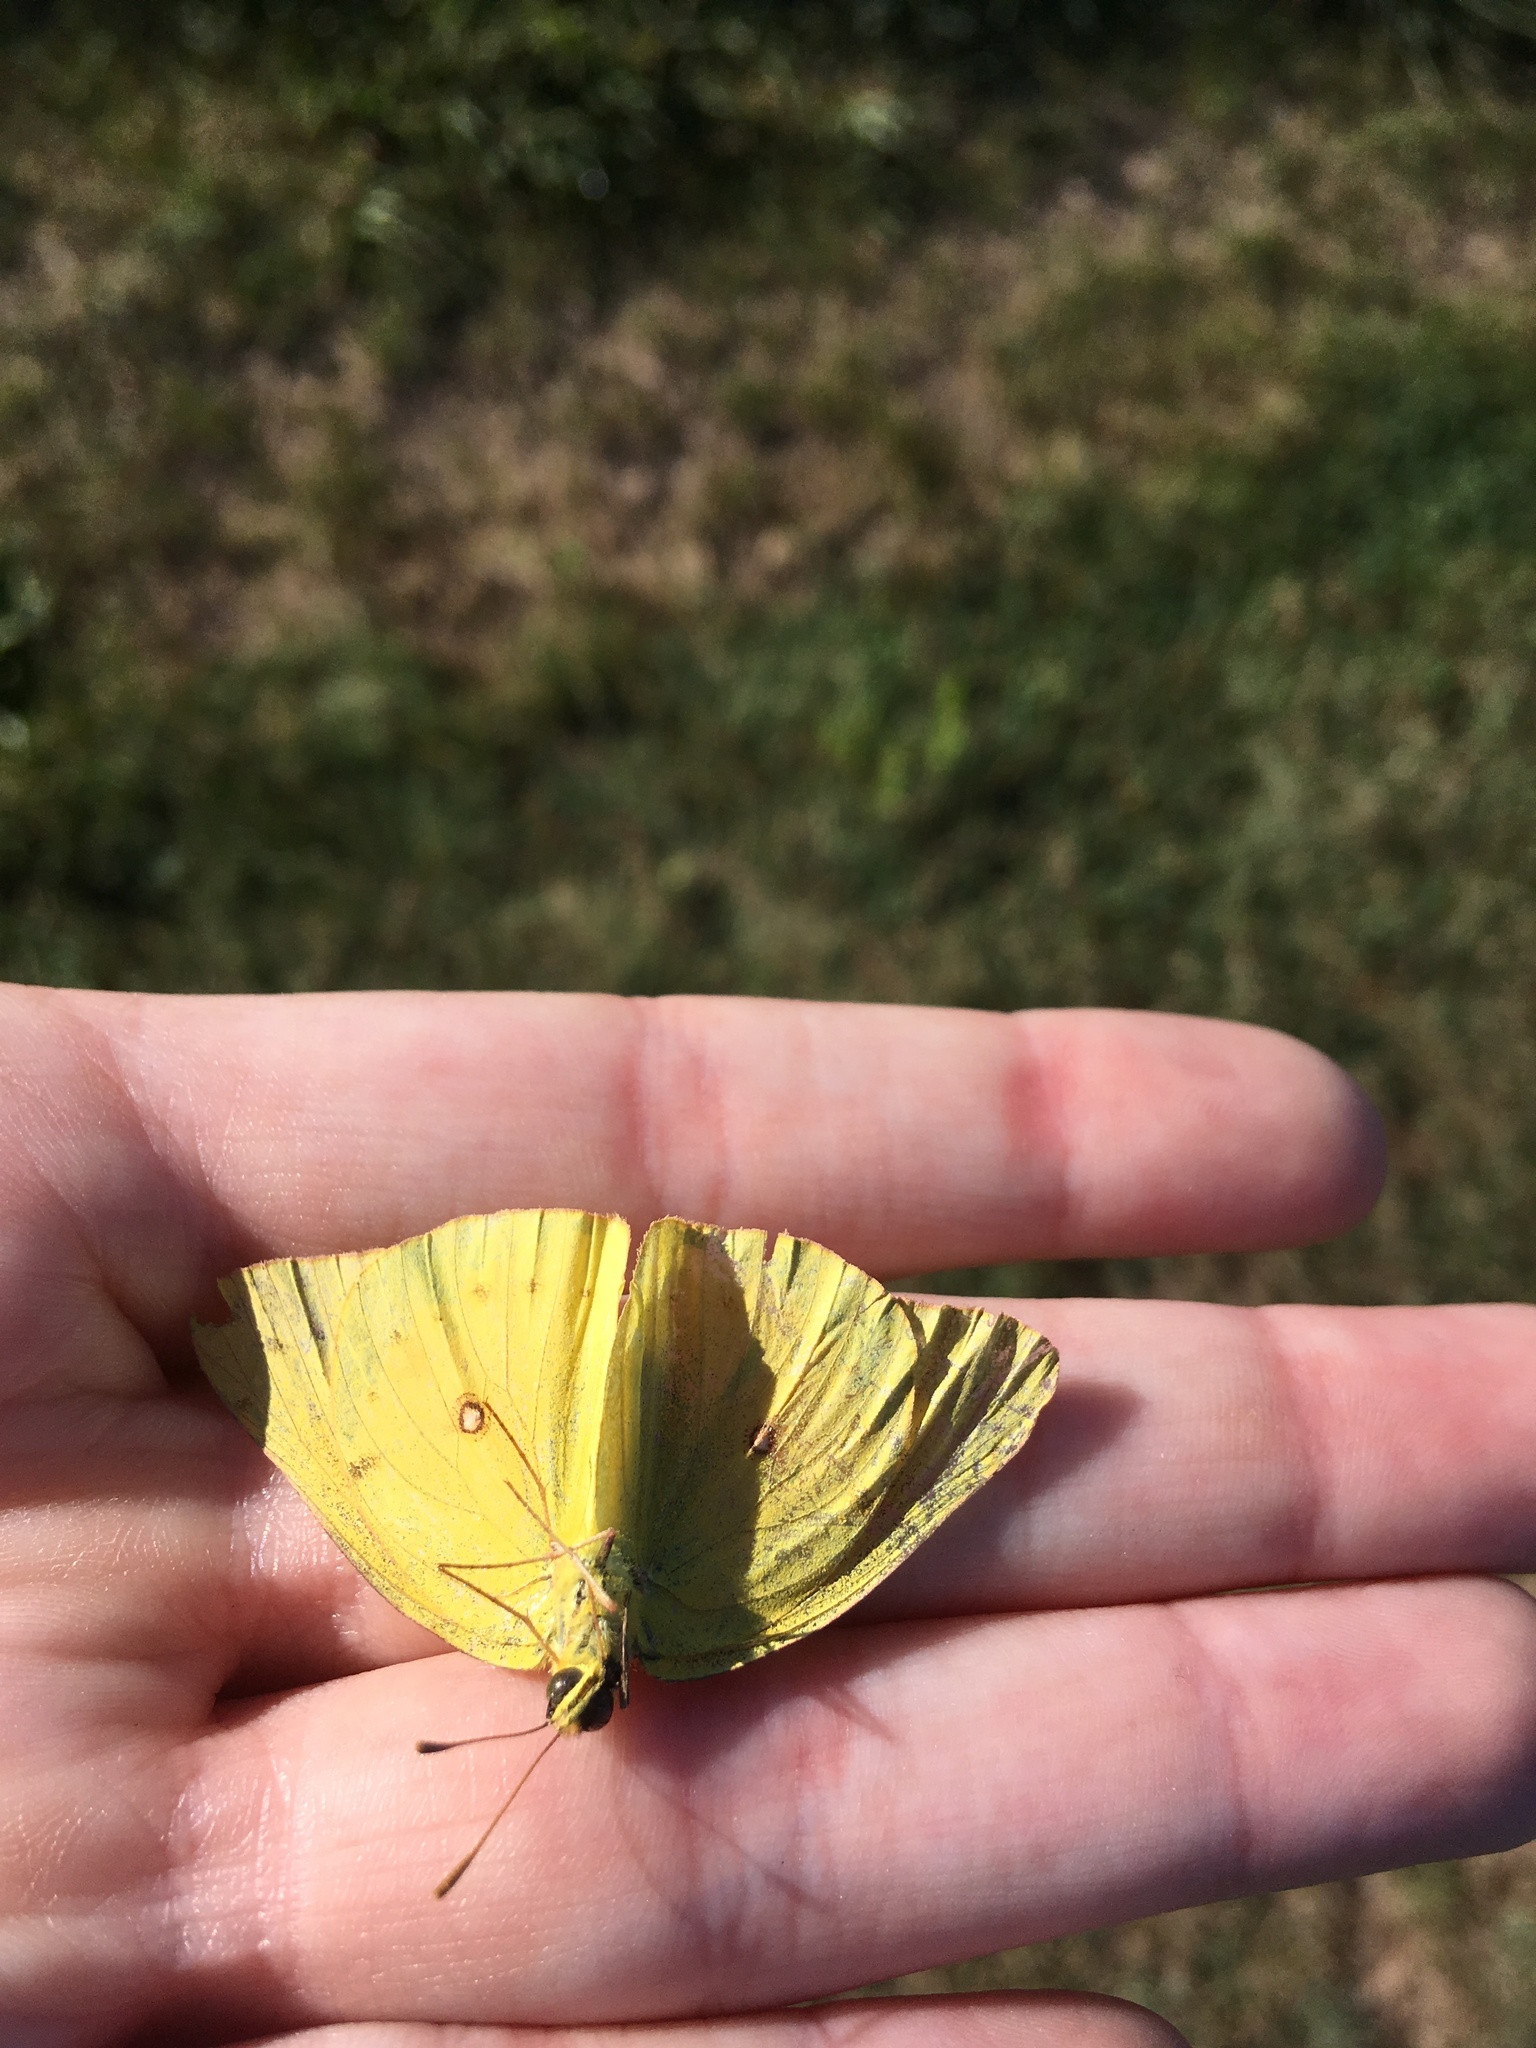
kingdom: Animalia
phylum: Arthropoda
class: Insecta
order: Lepidoptera
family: Pieridae
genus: Colias
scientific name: Colias eurytheme
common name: Alfalfa butterfly
